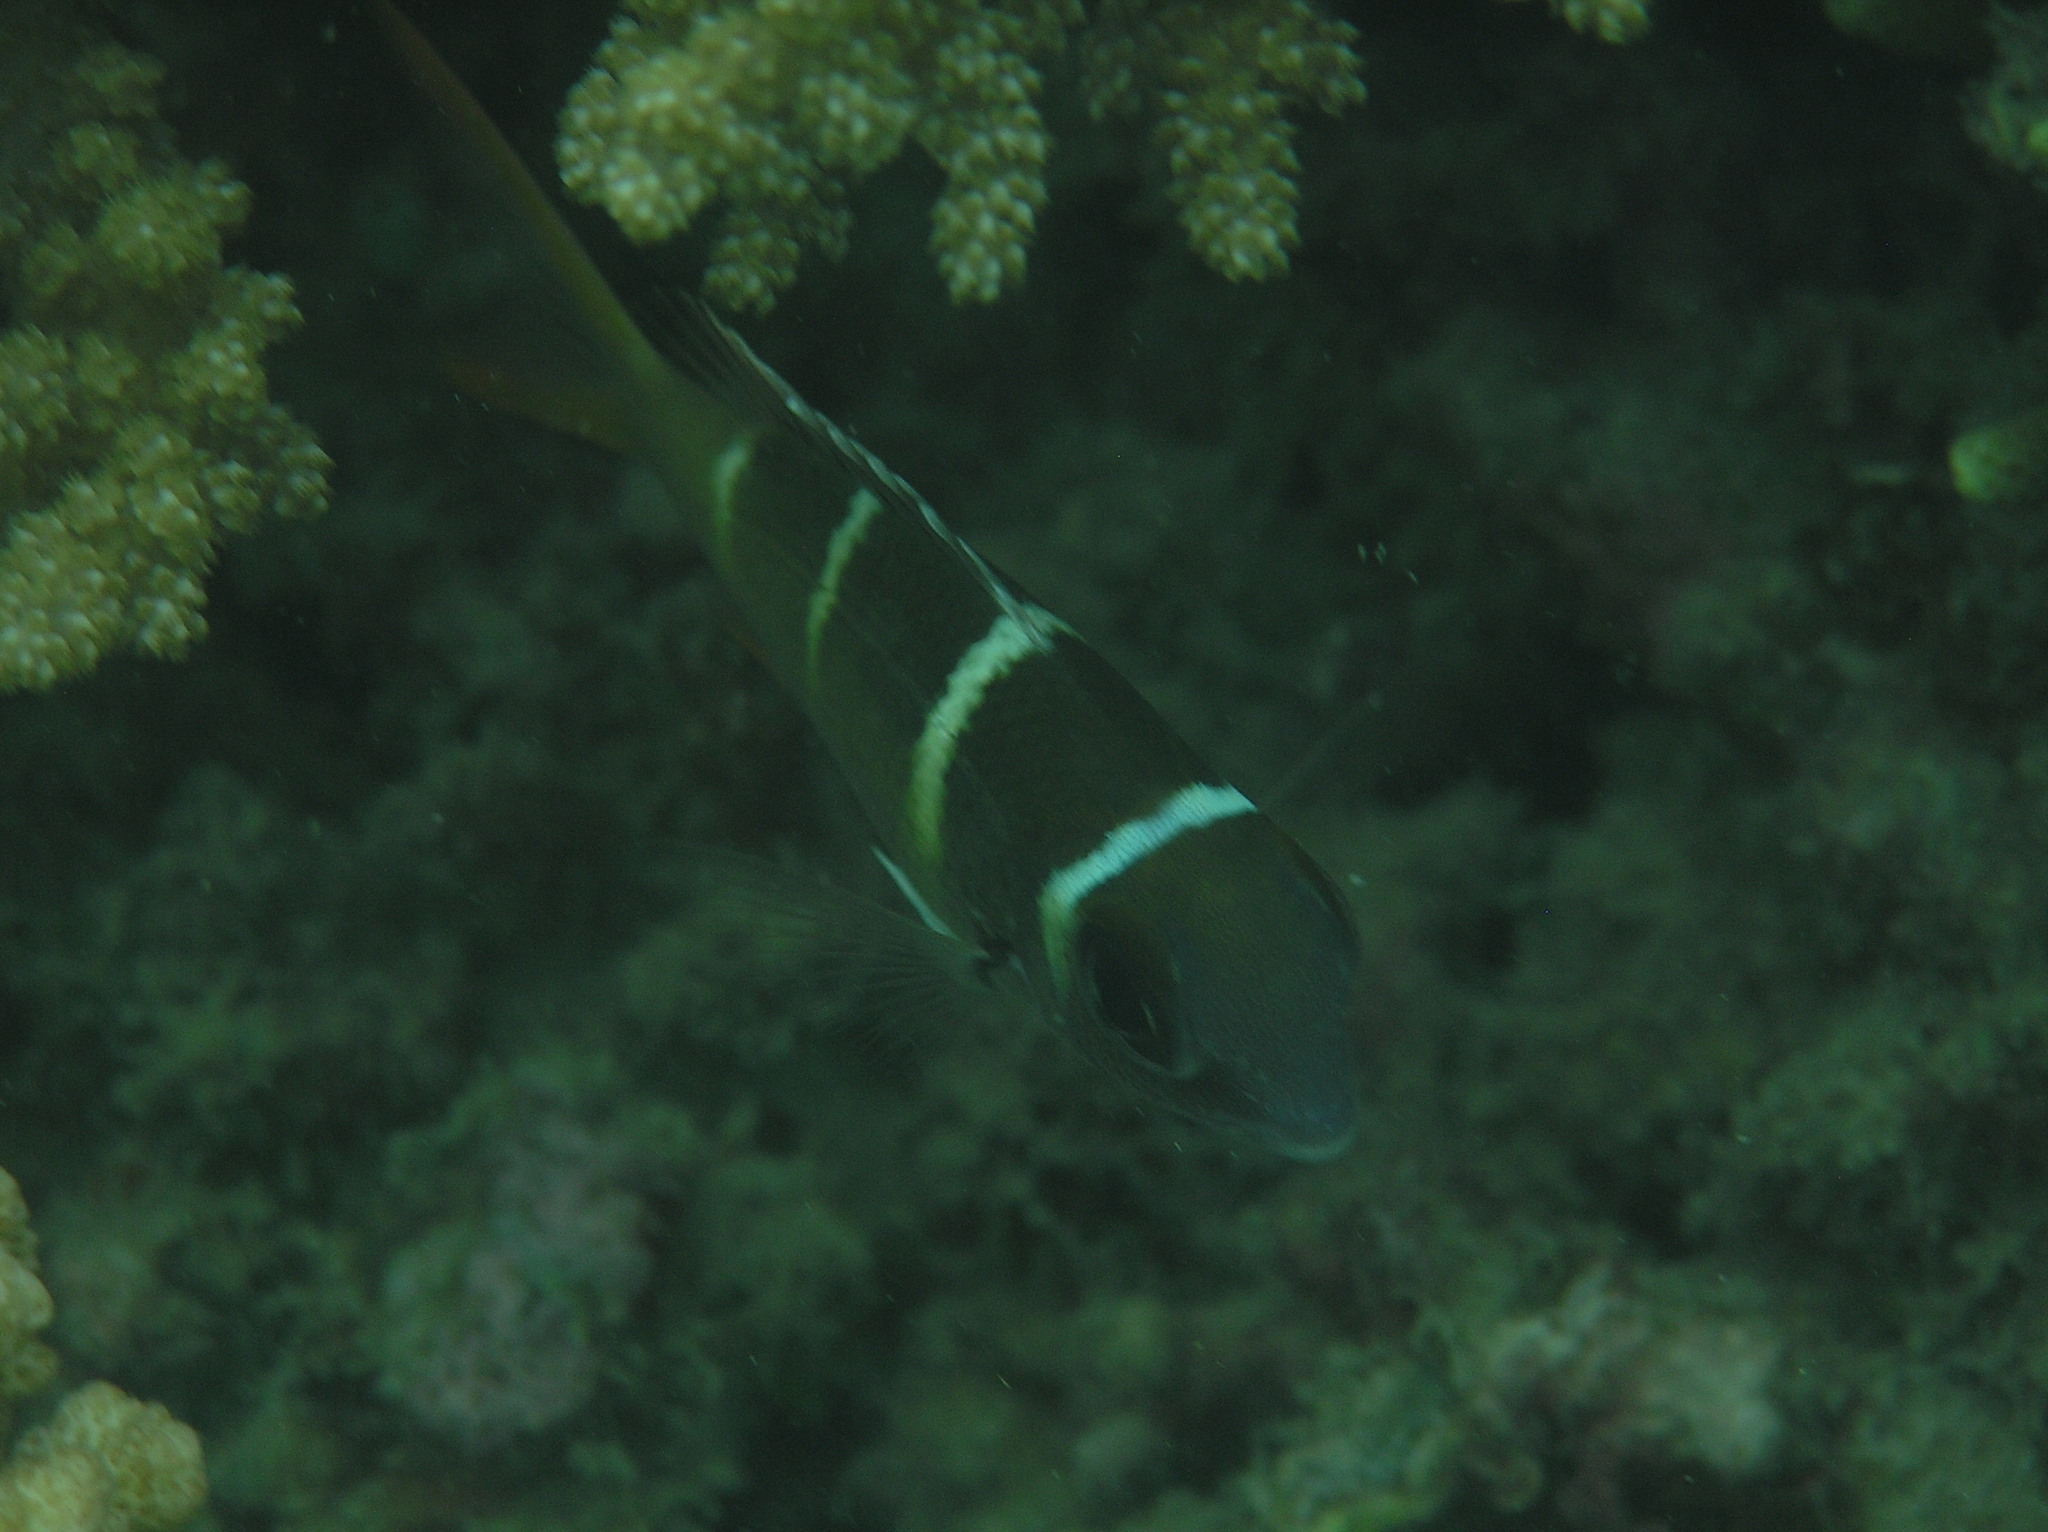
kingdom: Animalia
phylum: Chordata
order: Perciformes
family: Lethrinidae
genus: Monotaxis
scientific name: Monotaxis heterodon
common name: Redfin emperor
